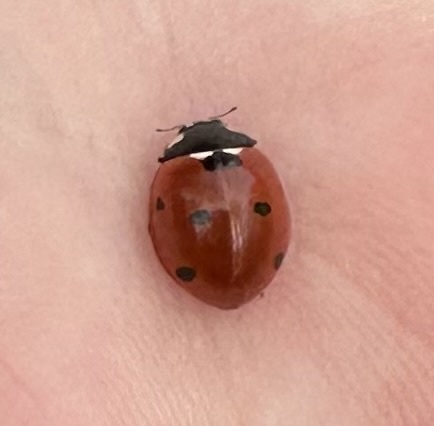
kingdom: Animalia
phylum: Arthropoda
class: Insecta
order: Coleoptera
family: Coccinellidae
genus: Coccinella
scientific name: Coccinella septempunctata
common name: Sevenspotted lady beetle
